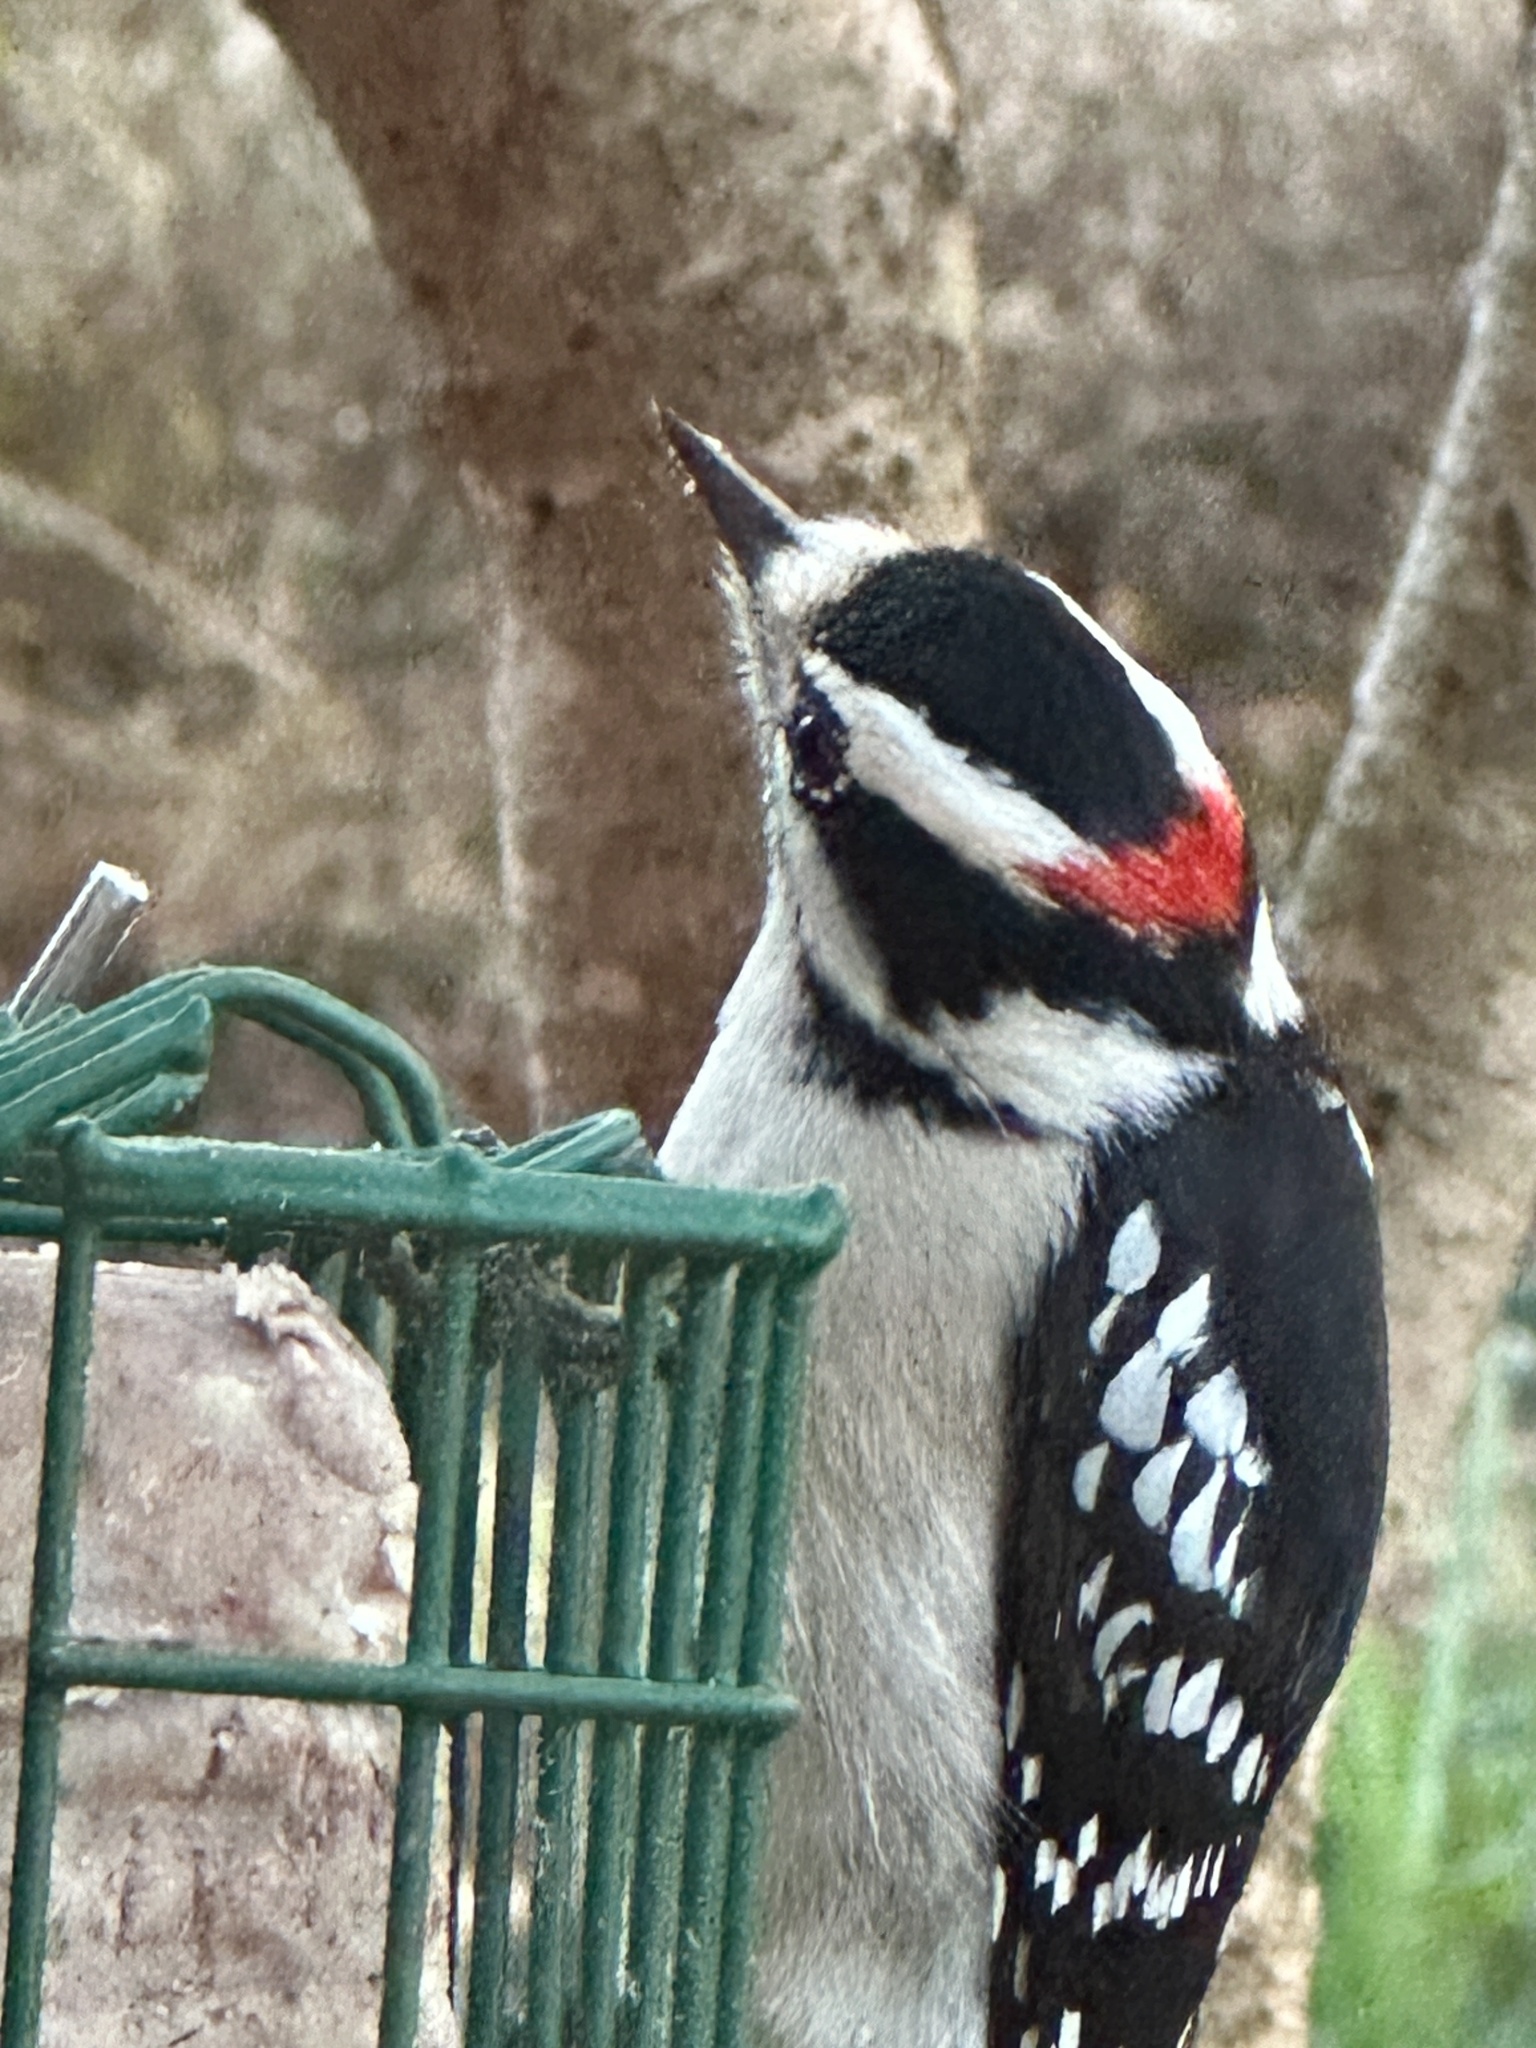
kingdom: Animalia
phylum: Chordata
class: Aves
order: Piciformes
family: Picidae
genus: Dryobates
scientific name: Dryobates pubescens
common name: Downy woodpecker
